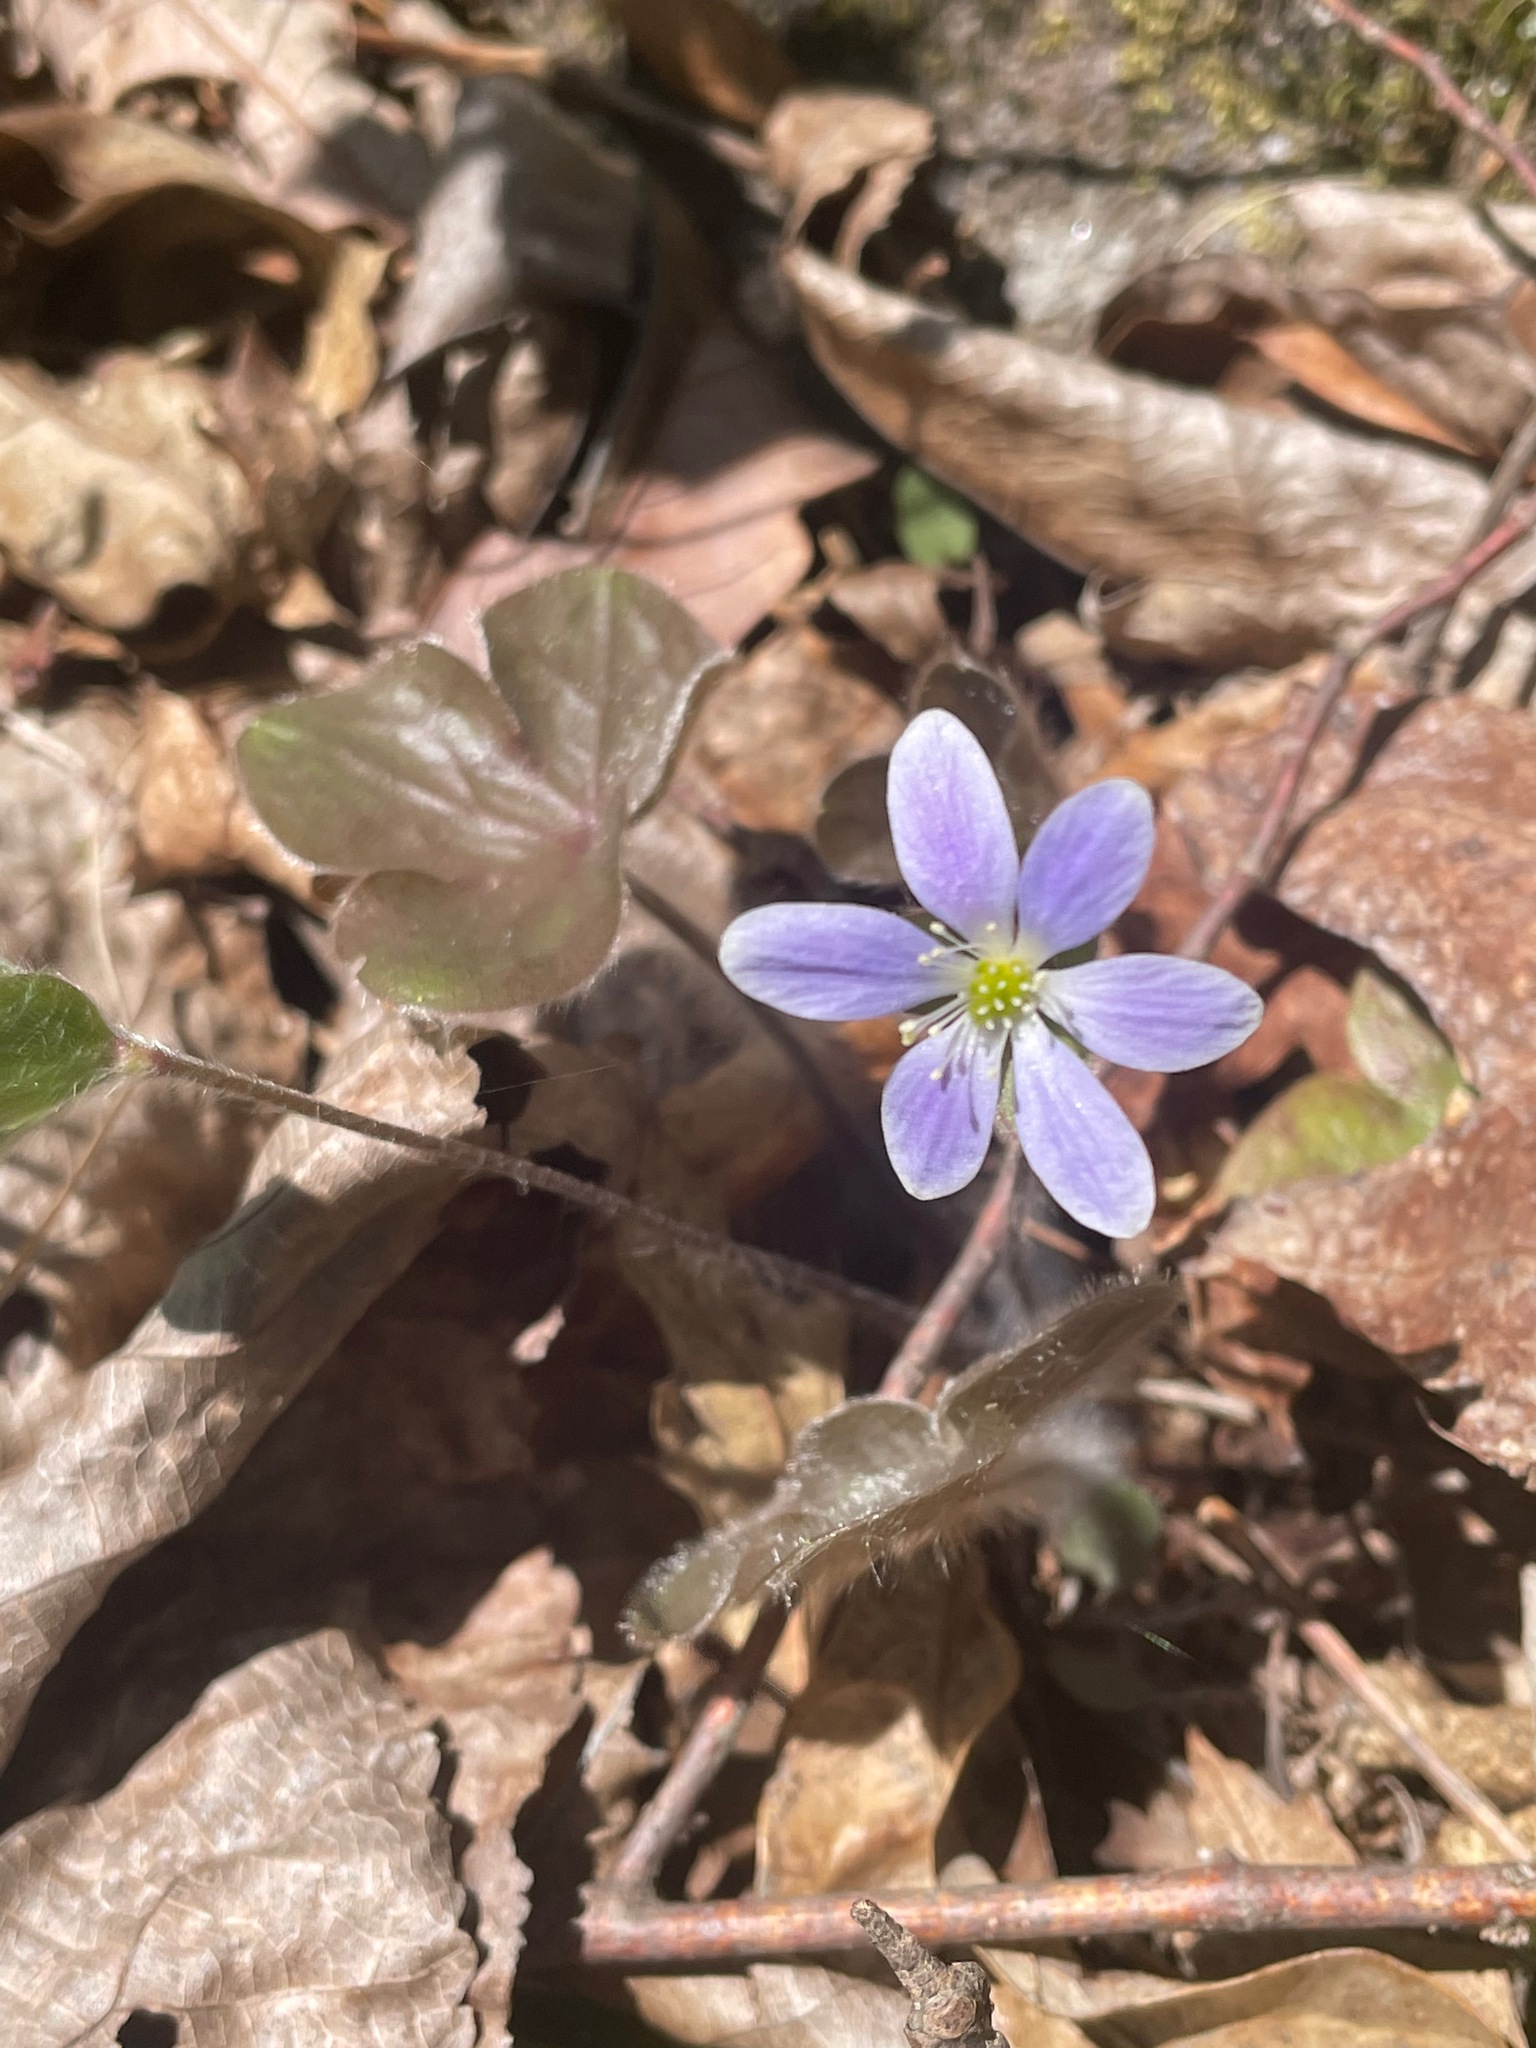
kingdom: Plantae
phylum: Tracheophyta
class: Magnoliopsida
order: Ranunculales
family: Ranunculaceae
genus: Hepatica
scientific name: Hepatica americana
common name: American hepatica
